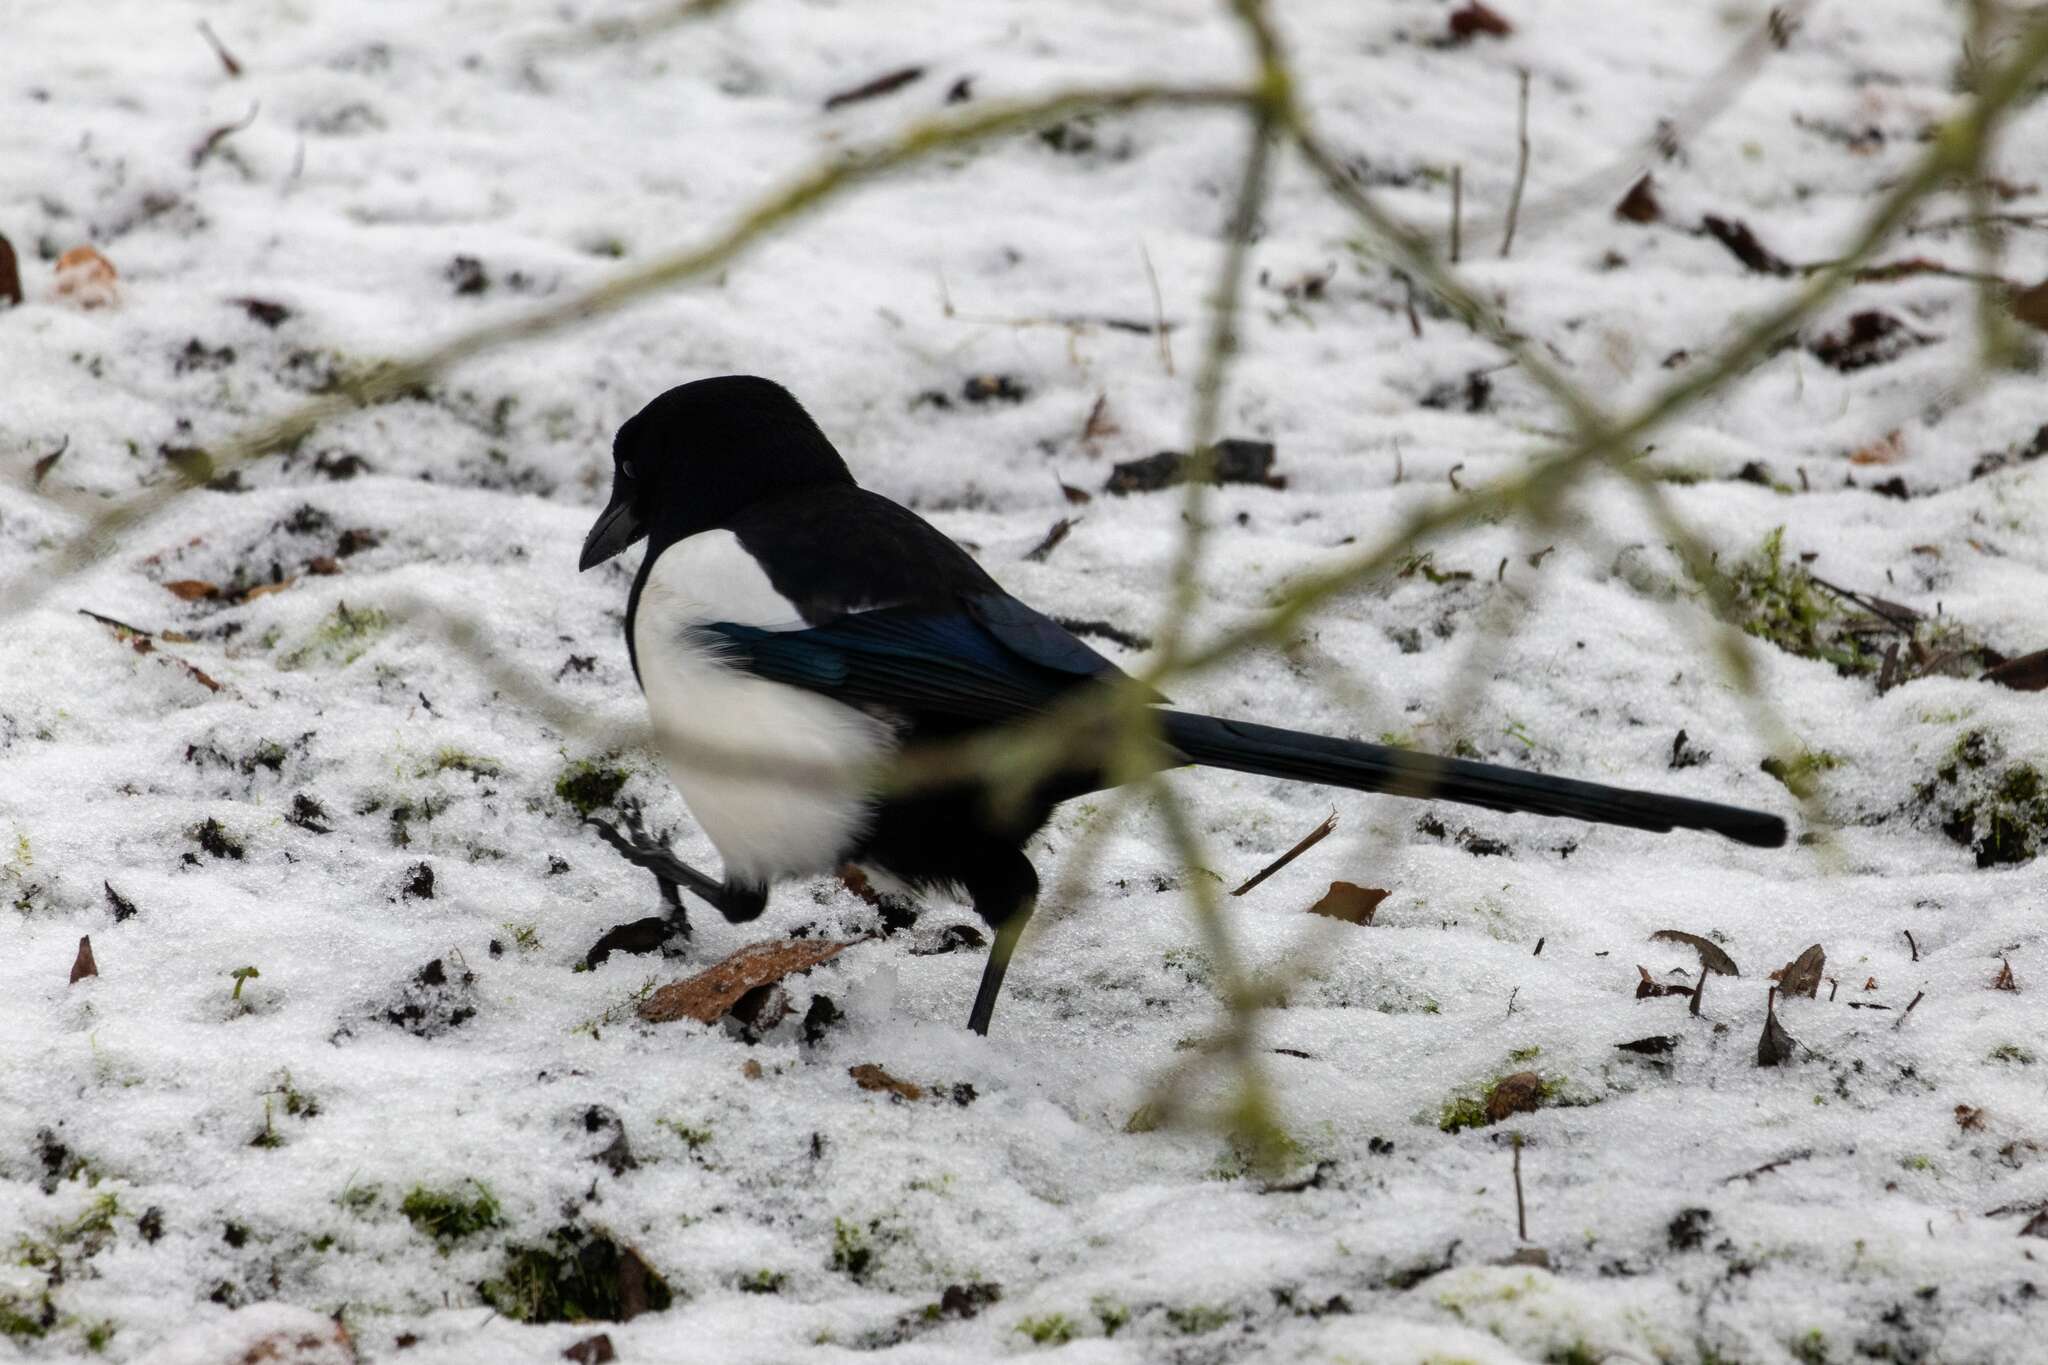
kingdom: Animalia
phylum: Chordata
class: Aves
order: Passeriformes
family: Corvidae
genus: Pica
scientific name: Pica pica
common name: Eurasian magpie
